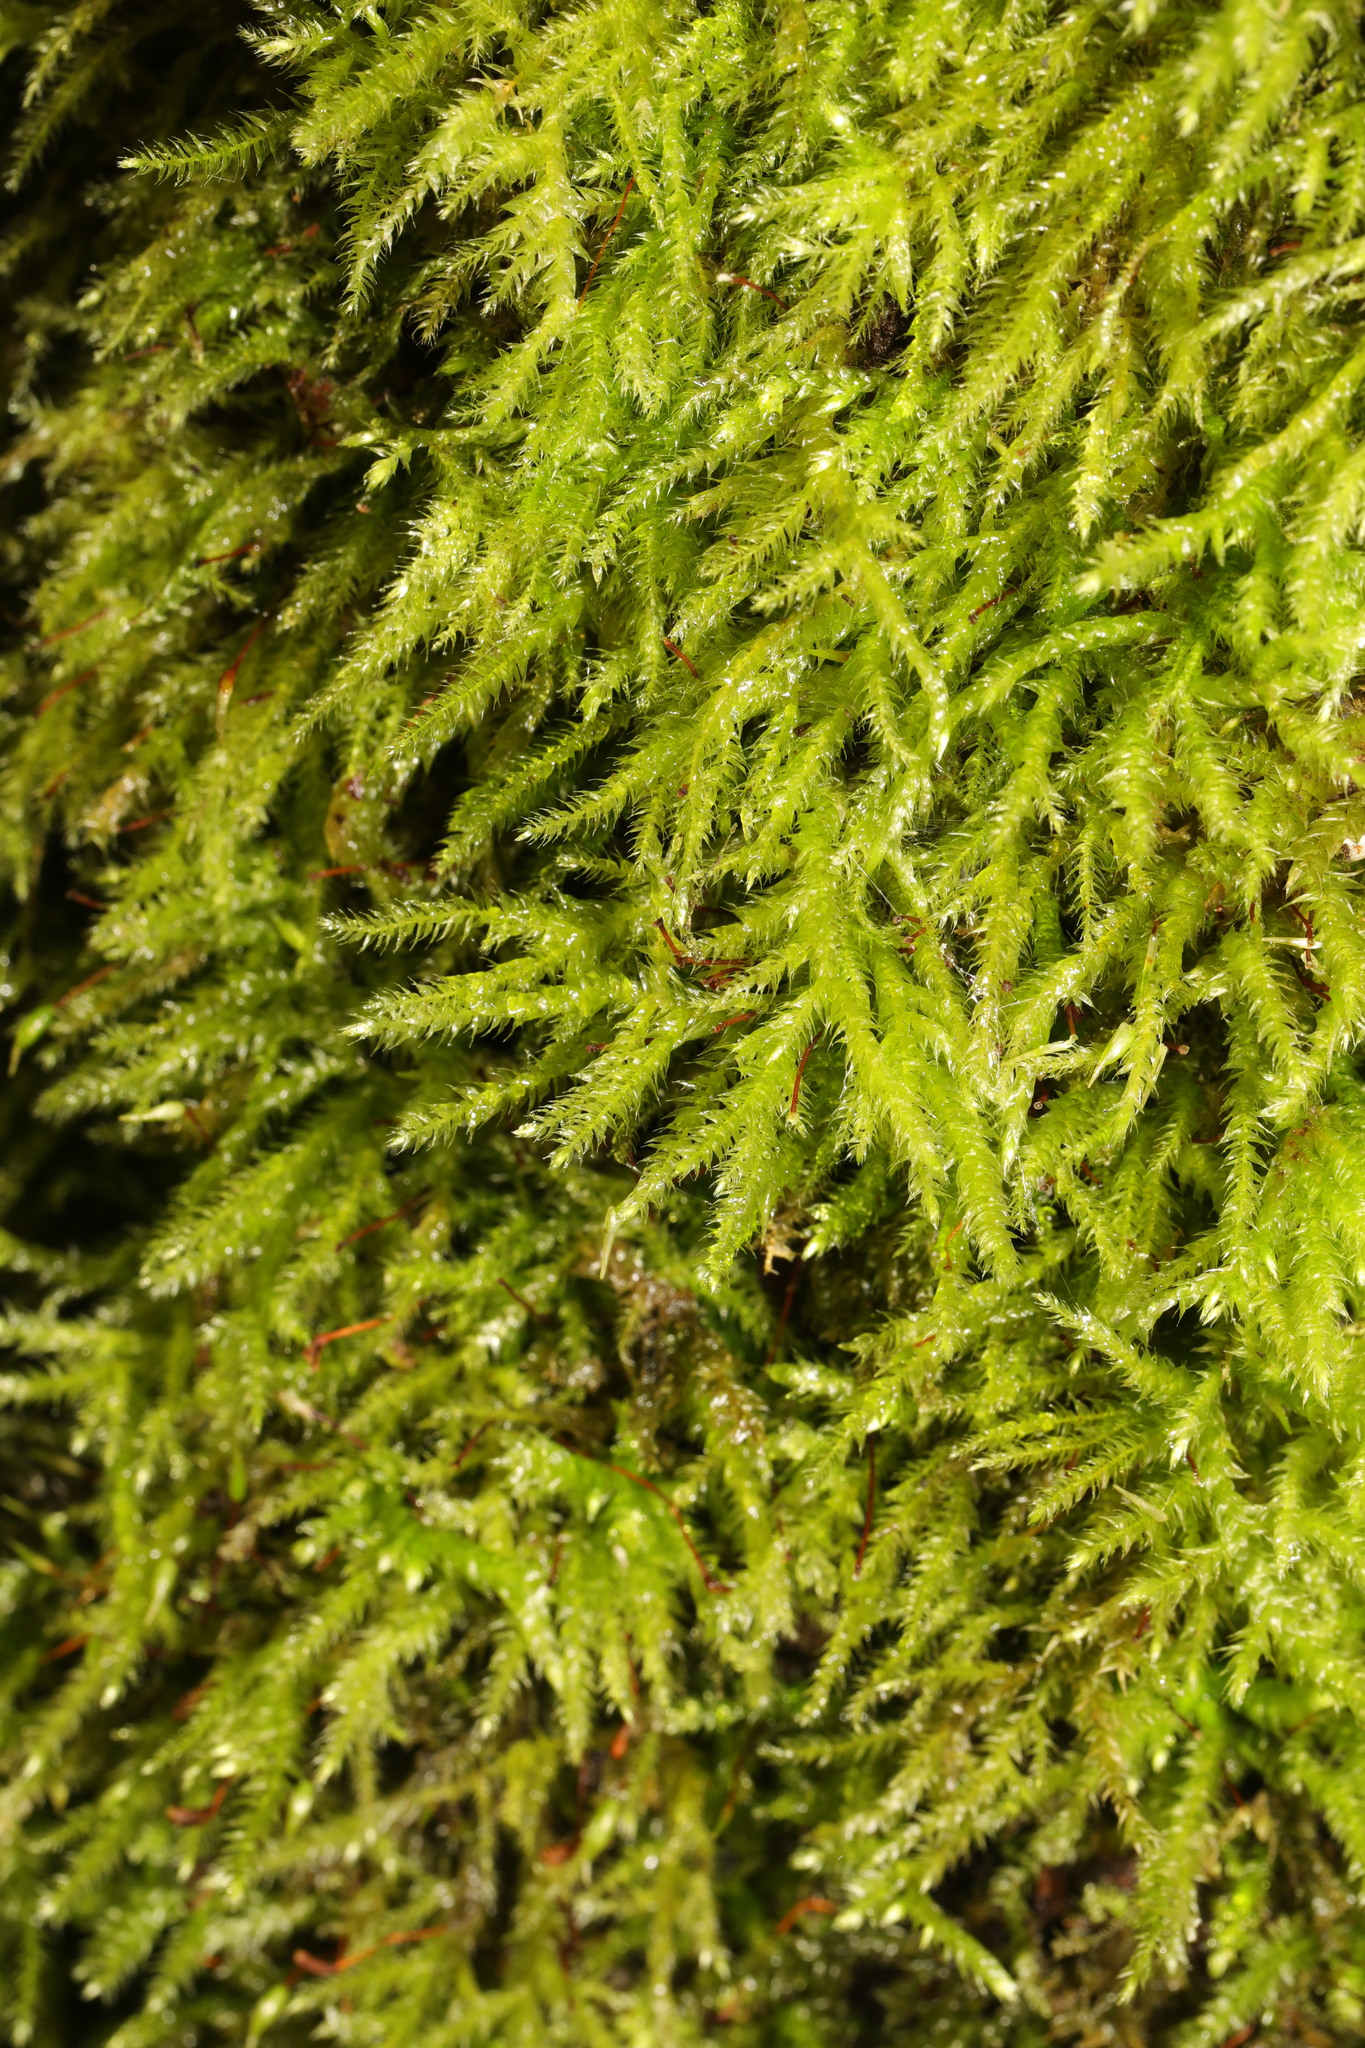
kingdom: Plantae
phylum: Bryophyta
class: Bryopsida
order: Hypnales
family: Brachytheciaceae
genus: Brachytheciastrum
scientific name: Brachytheciastrum velutinum
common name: Velvet feather-moss
